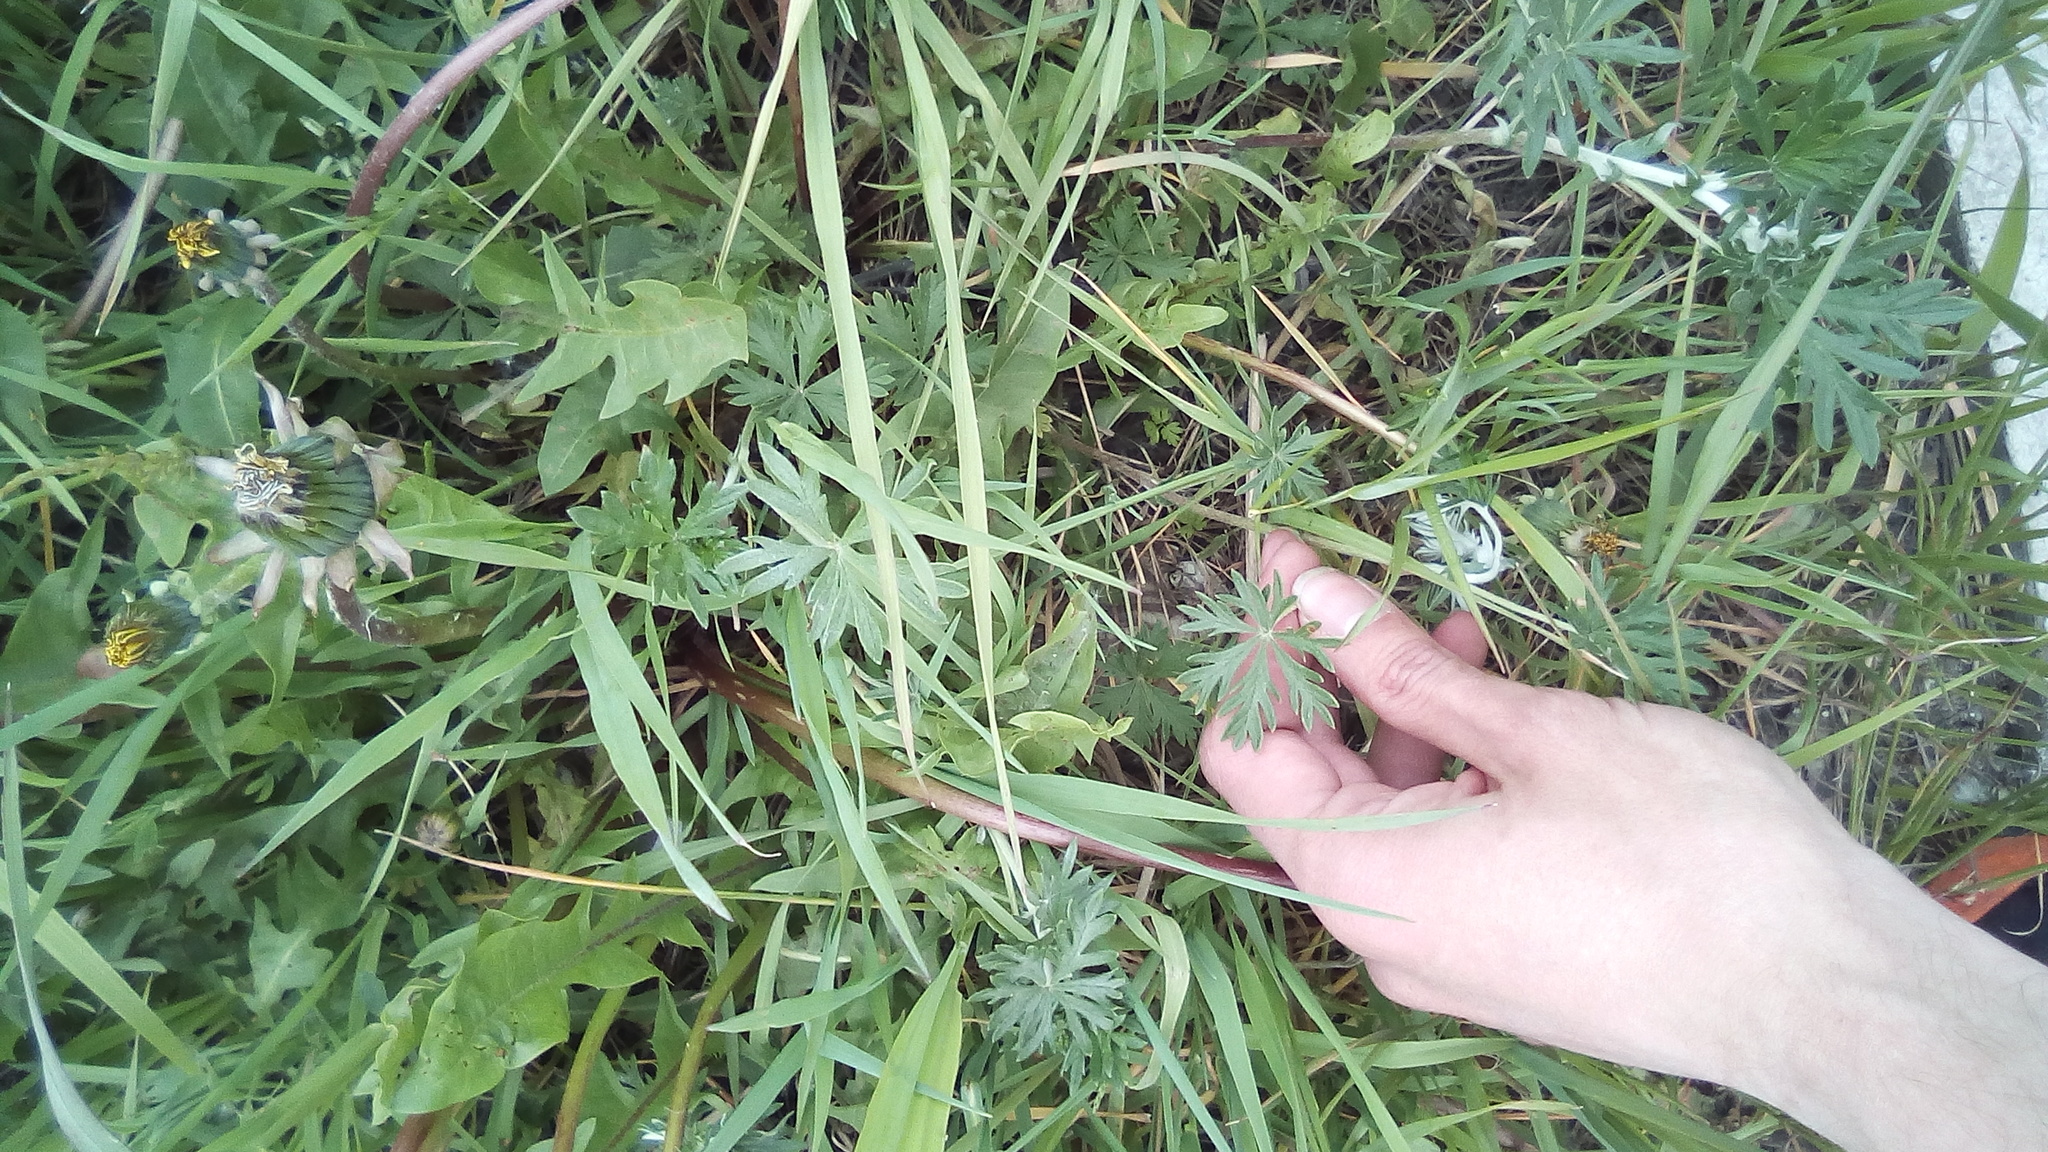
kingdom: Plantae
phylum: Tracheophyta
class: Magnoliopsida
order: Rosales
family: Rosaceae
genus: Potentilla
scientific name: Potentilla argentea
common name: Hoary cinquefoil
